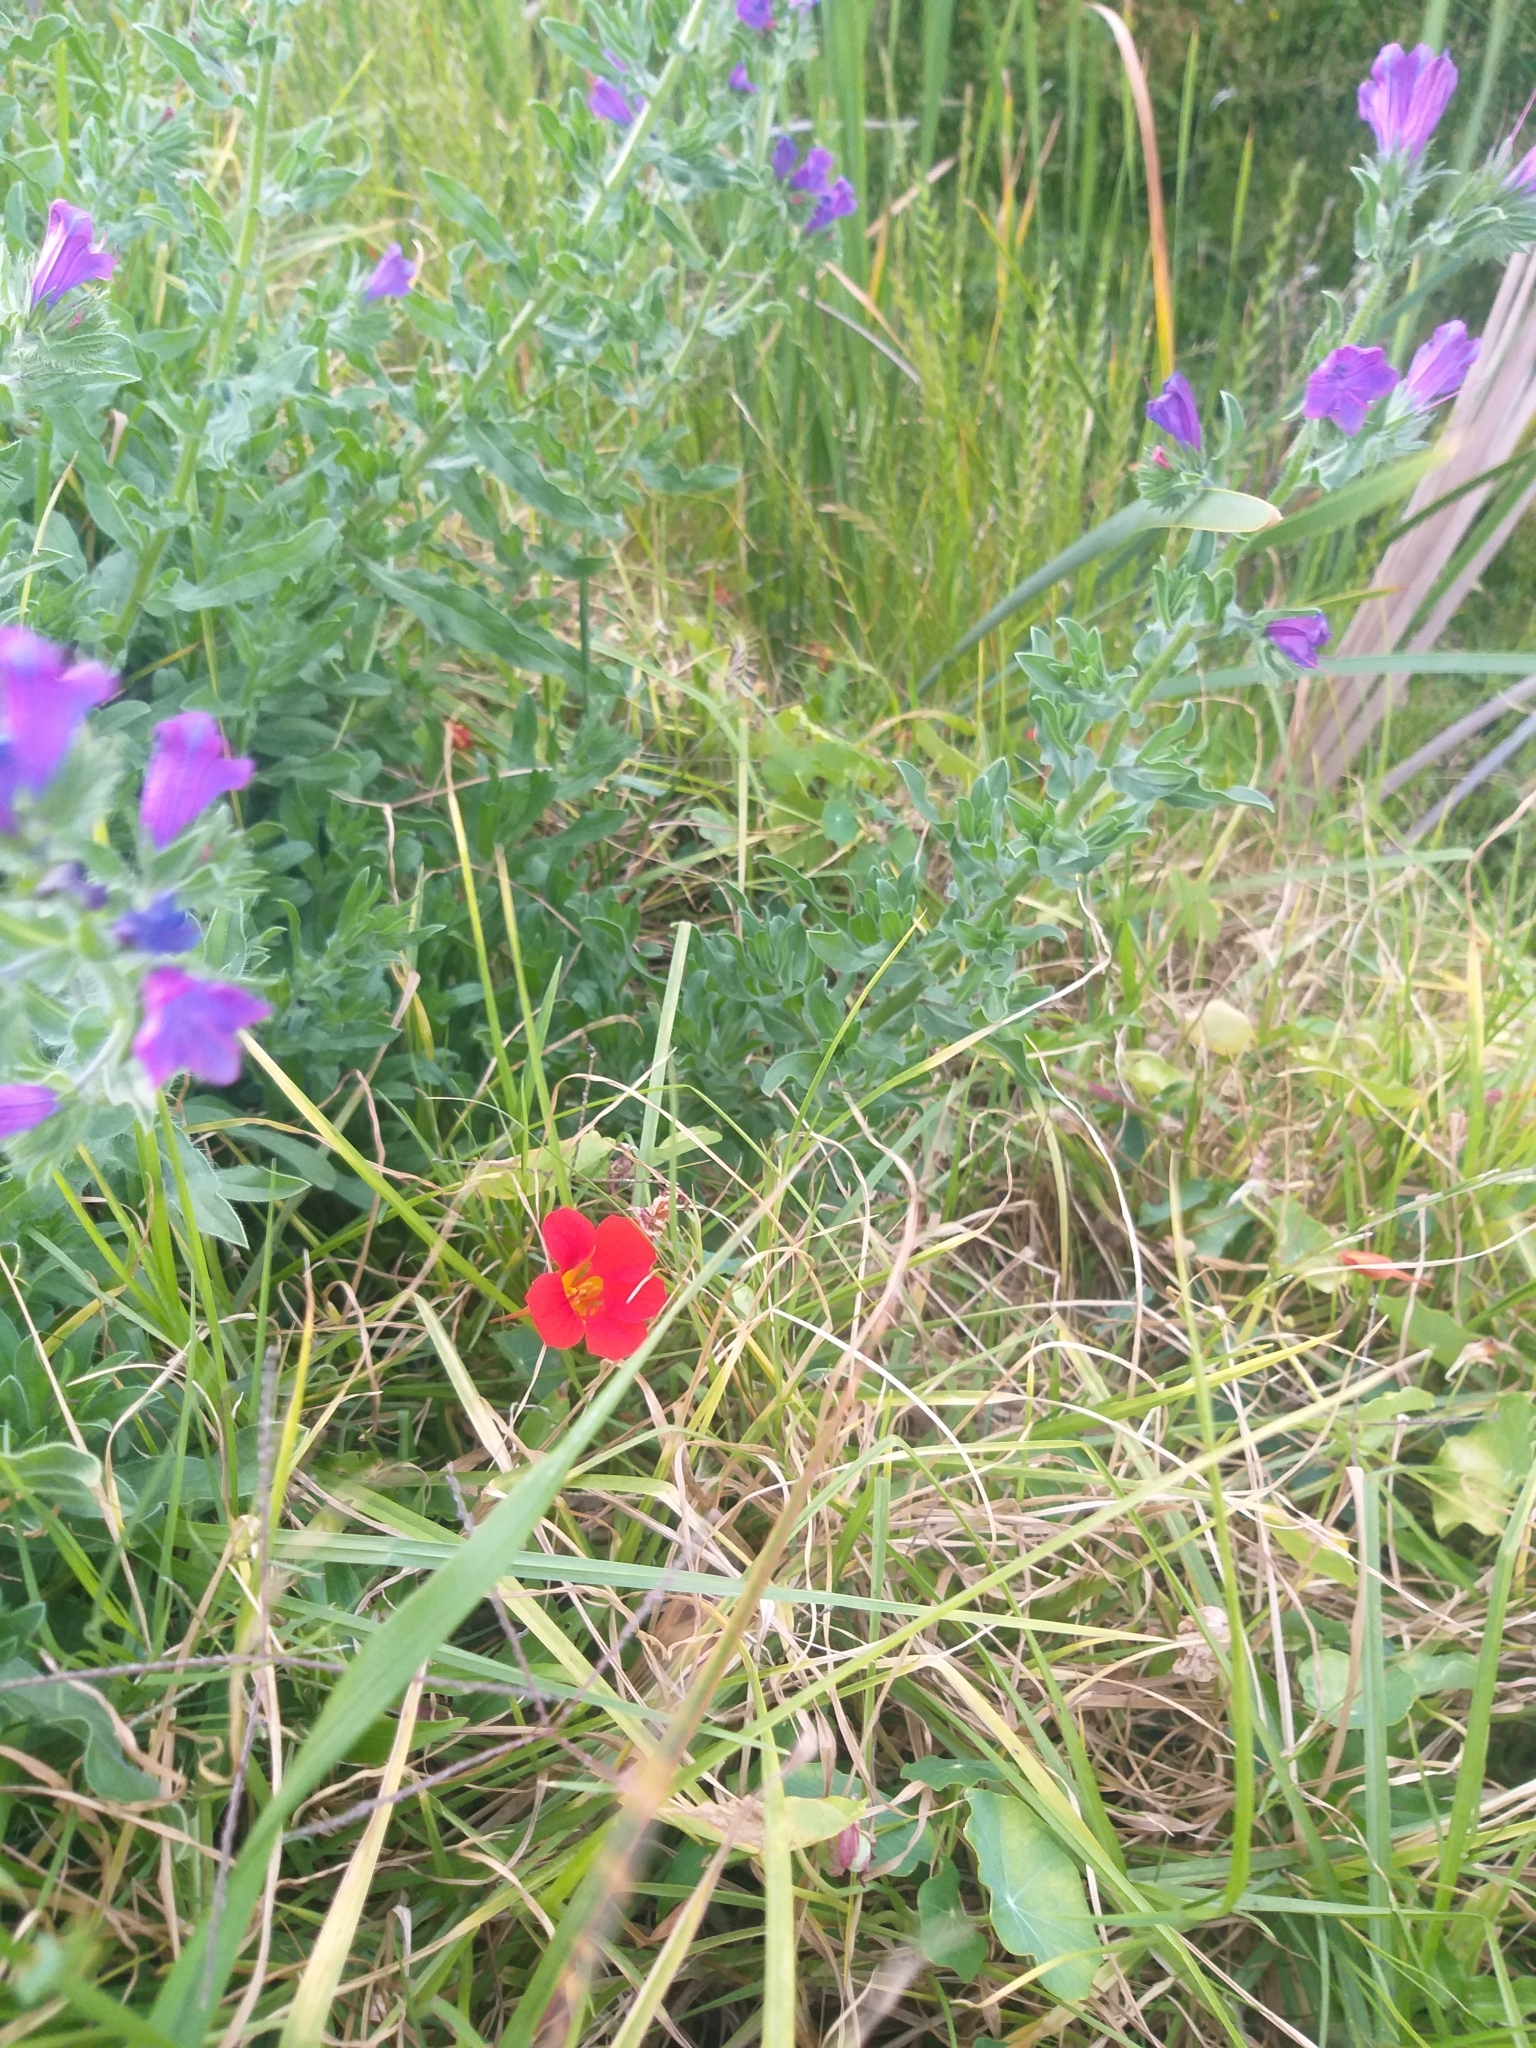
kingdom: Plantae
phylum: Tracheophyta
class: Magnoliopsida
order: Brassicales
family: Tropaeolaceae
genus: Tropaeolum
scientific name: Tropaeolum majus
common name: Nasturtium
